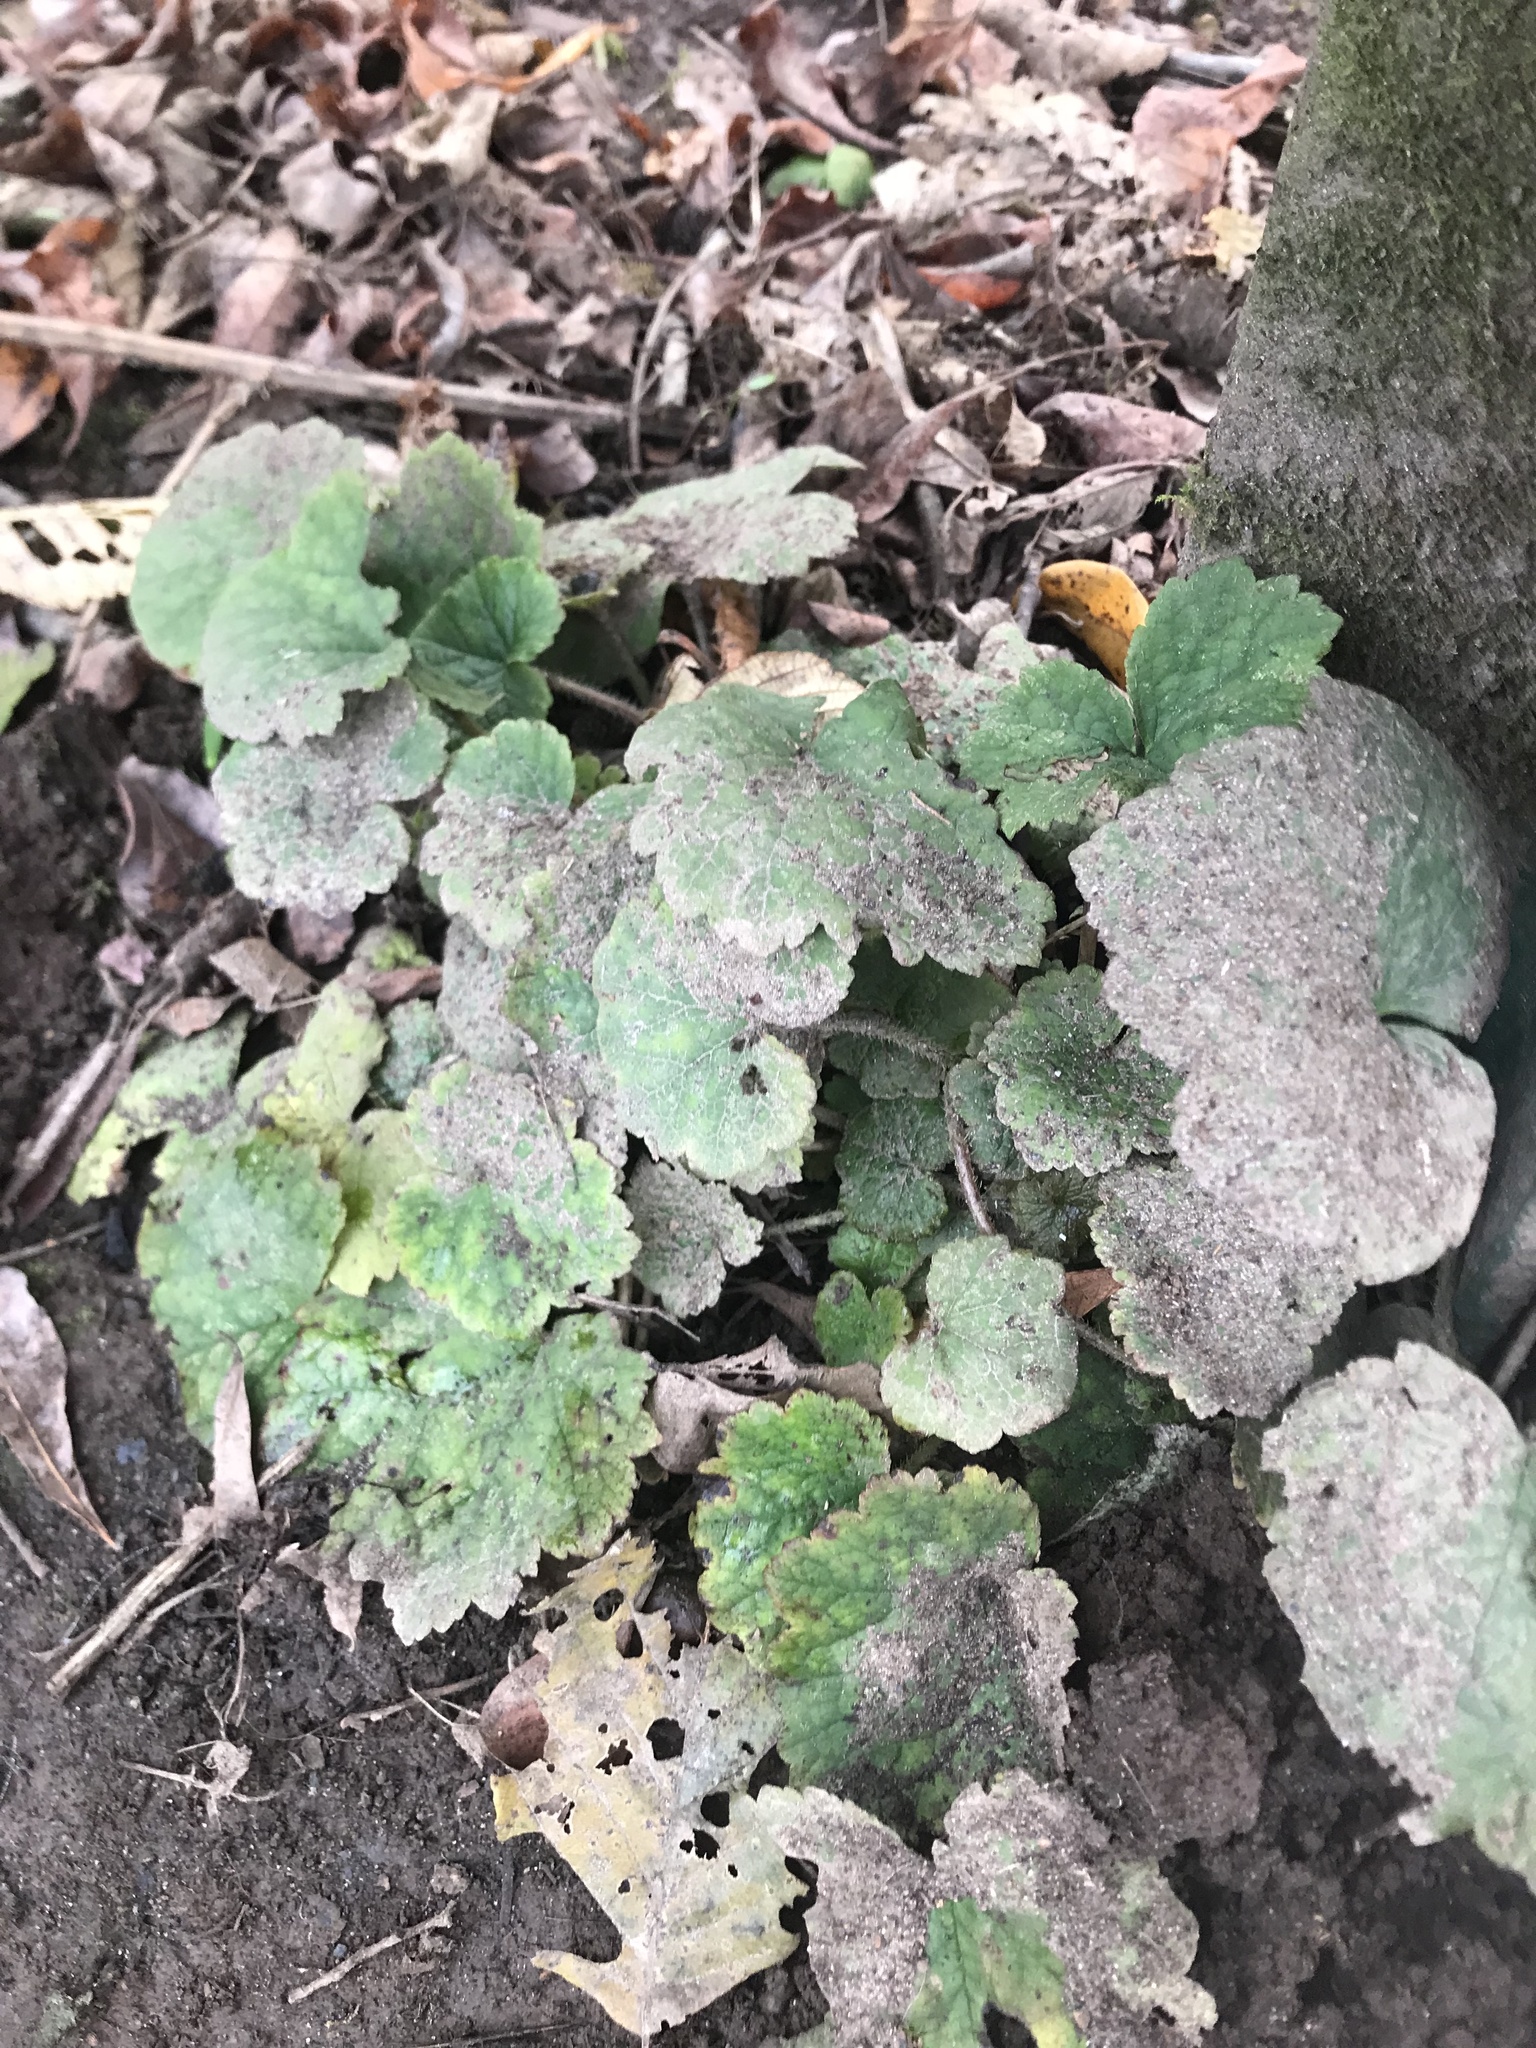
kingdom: Plantae
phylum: Tracheophyta
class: Magnoliopsida
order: Saxifragales
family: Saxifragaceae
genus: Tellima
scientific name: Tellima grandiflora
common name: Fringecups
